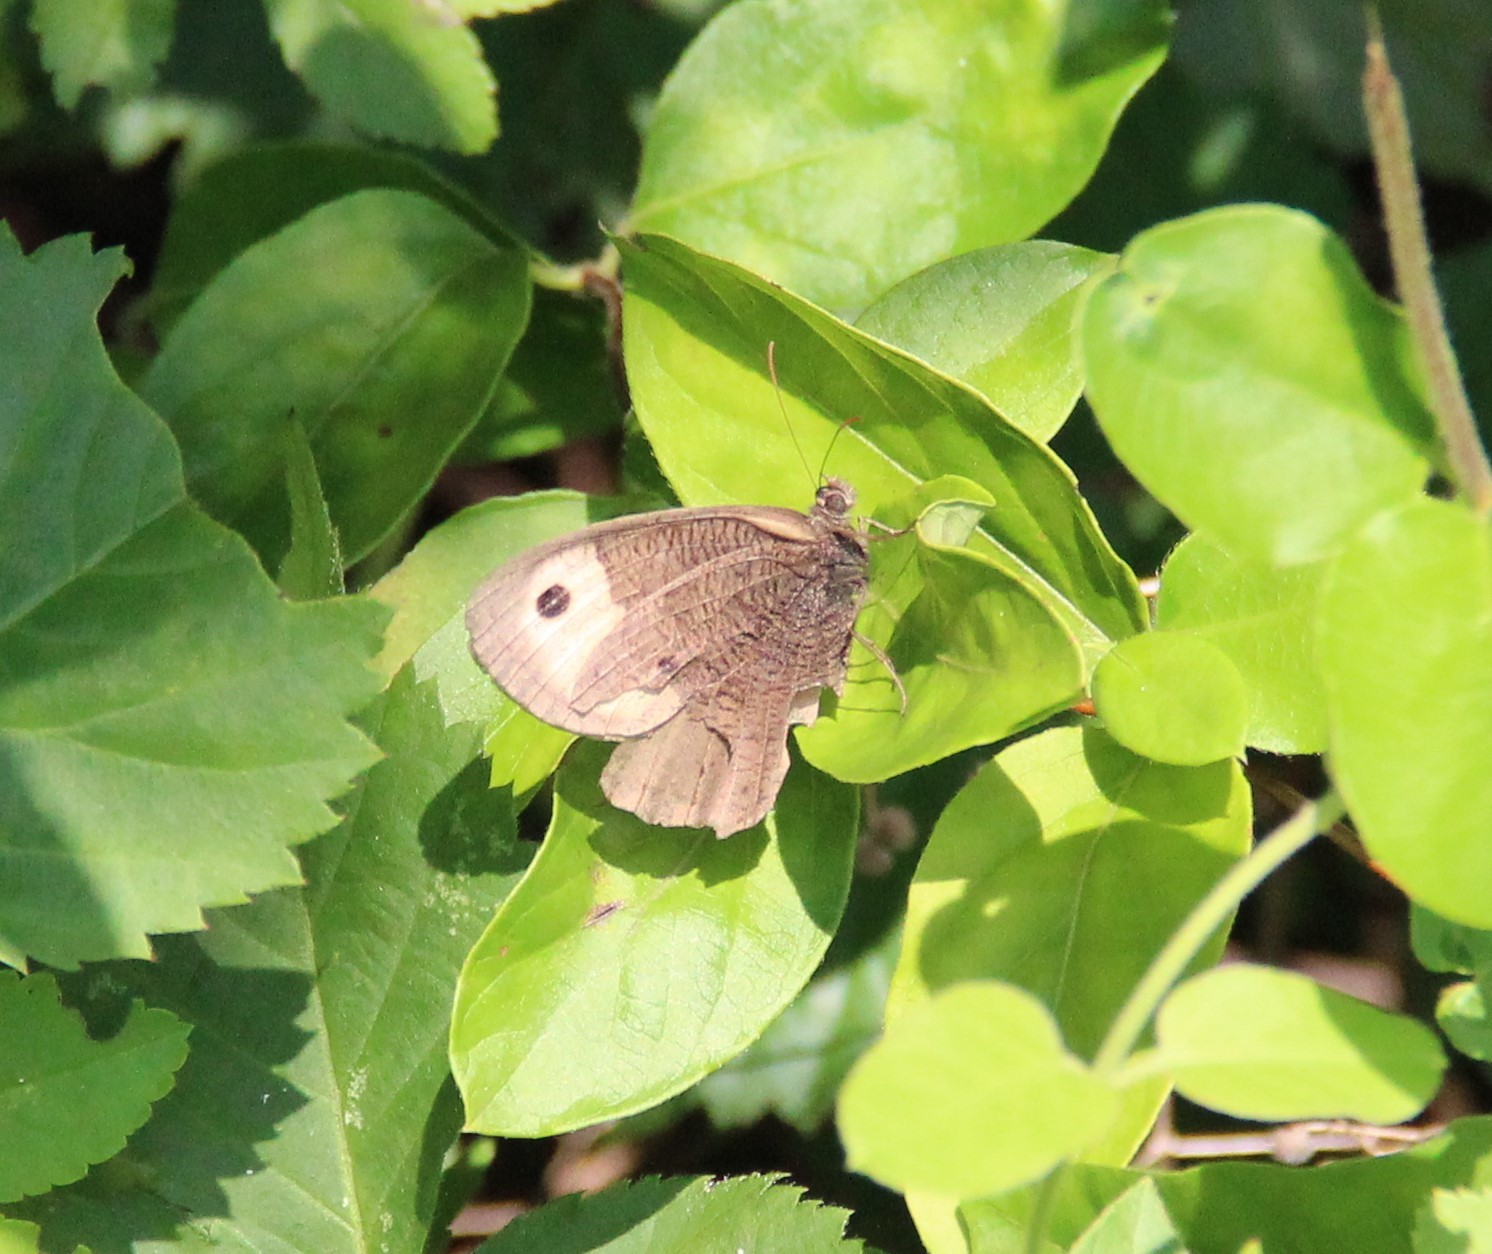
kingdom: Animalia
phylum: Arthropoda
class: Insecta
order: Lepidoptera
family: Nymphalidae
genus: Cercyonis
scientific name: Cercyonis pegala
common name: Common wood-nymph
